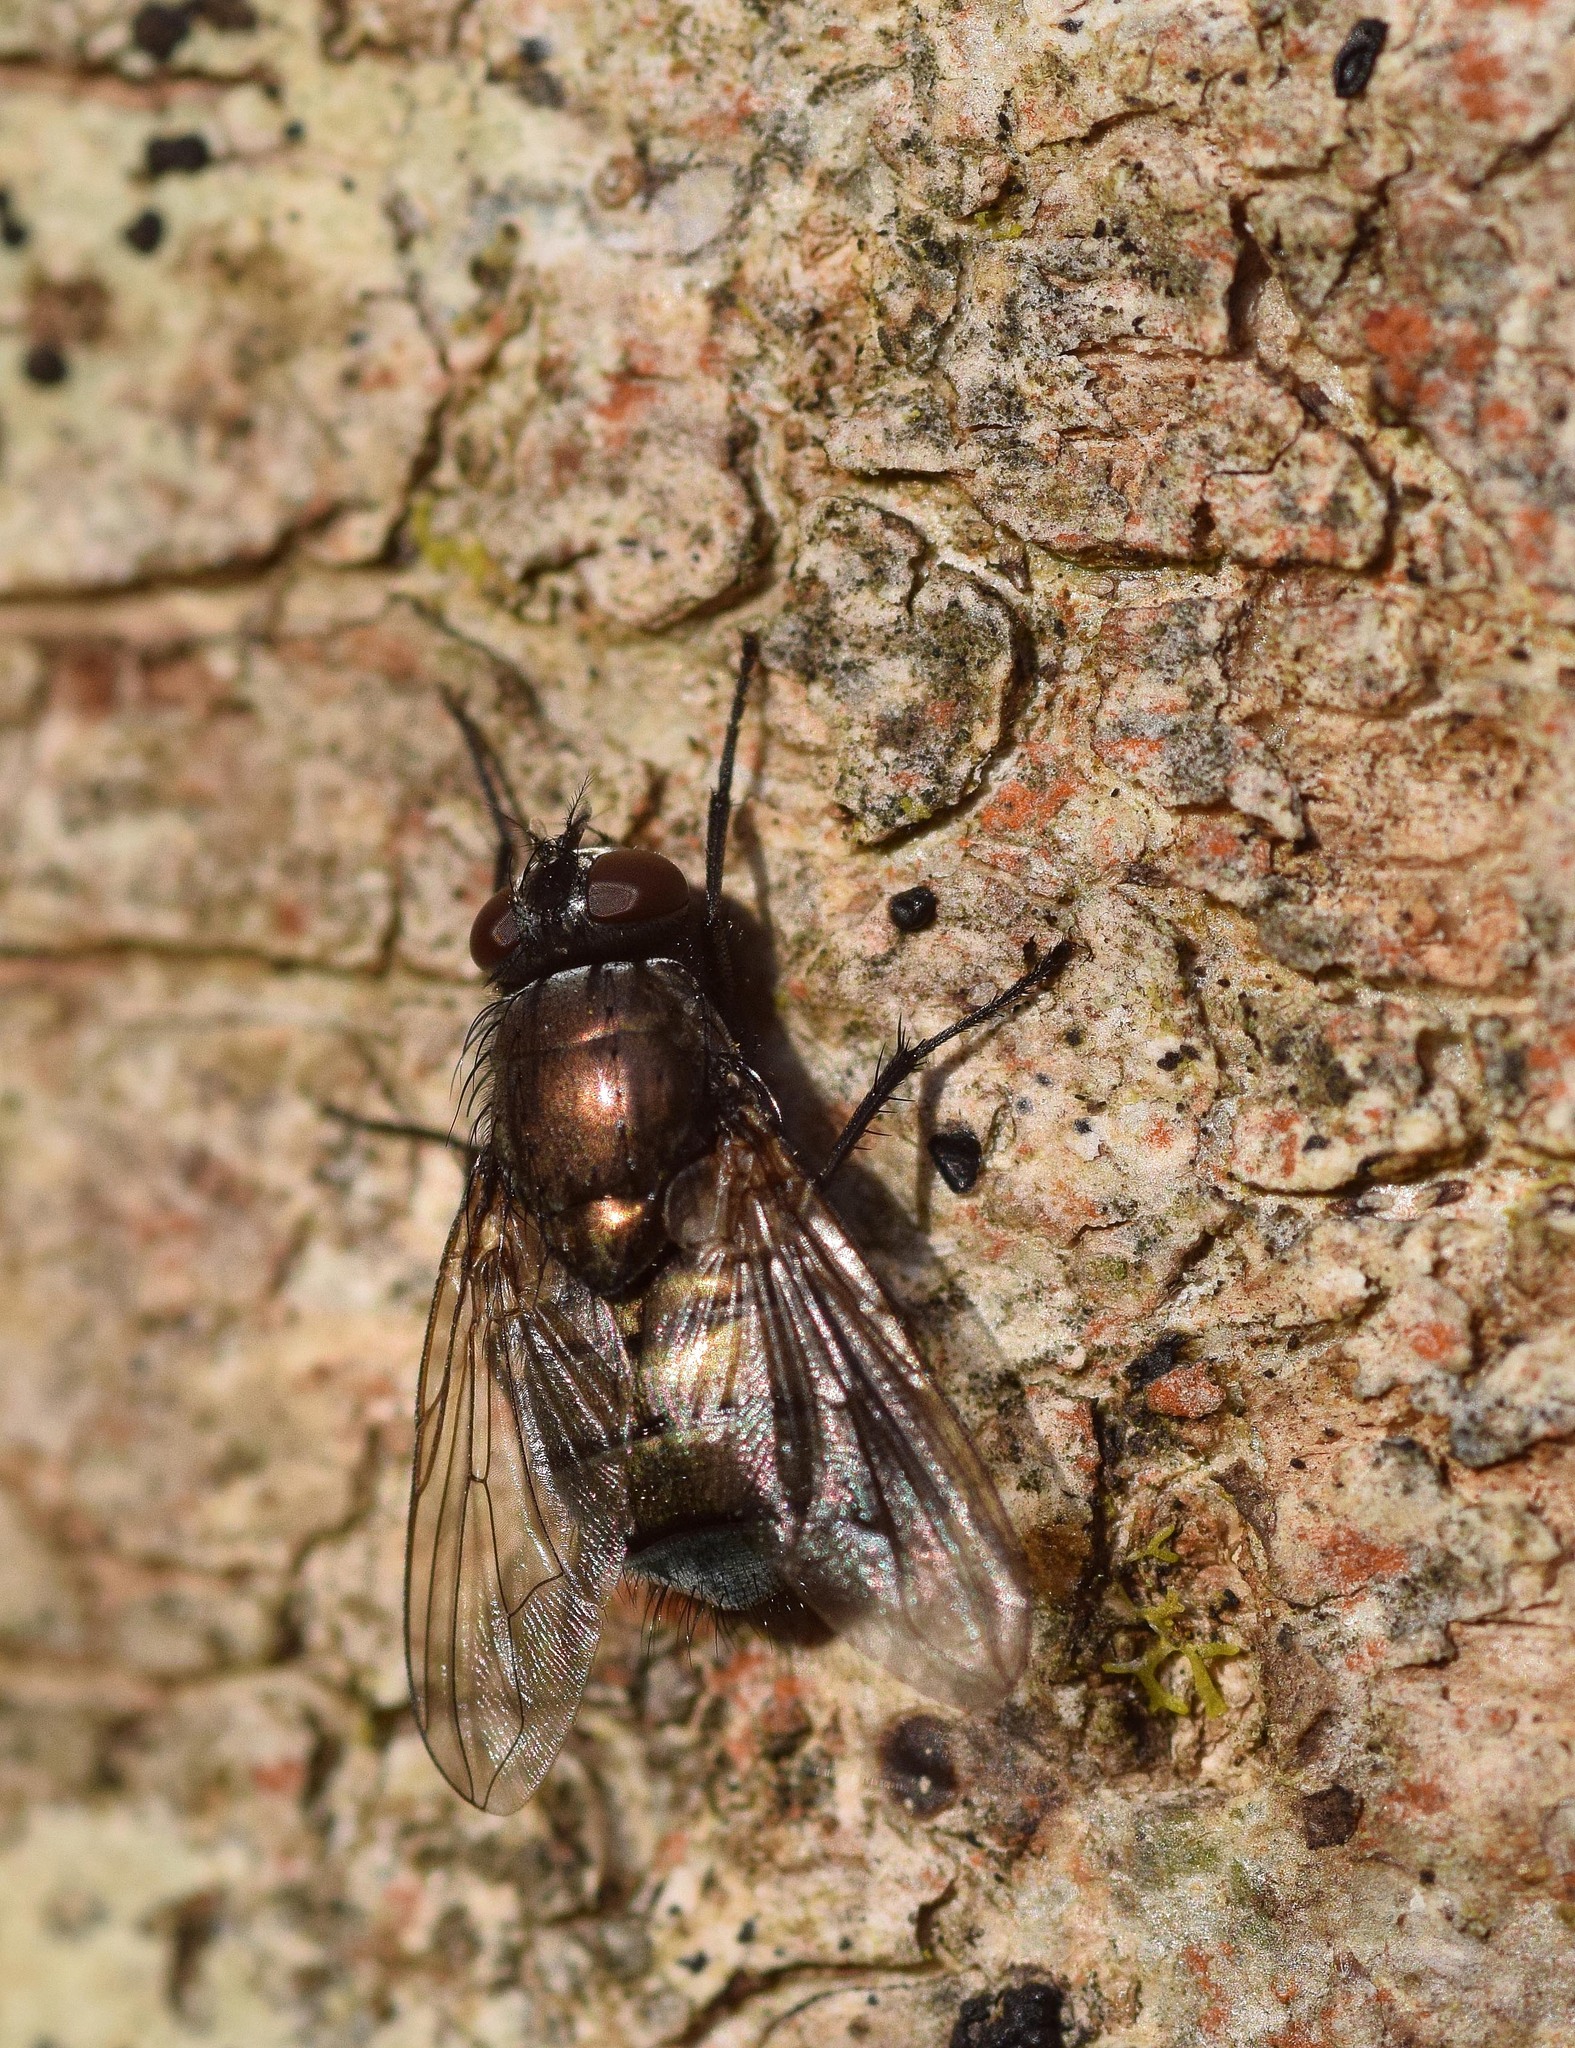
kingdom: Animalia
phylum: Arthropoda
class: Insecta
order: Diptera
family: Muscidae
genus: Dasyphora
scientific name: Dasyphora cyanella
